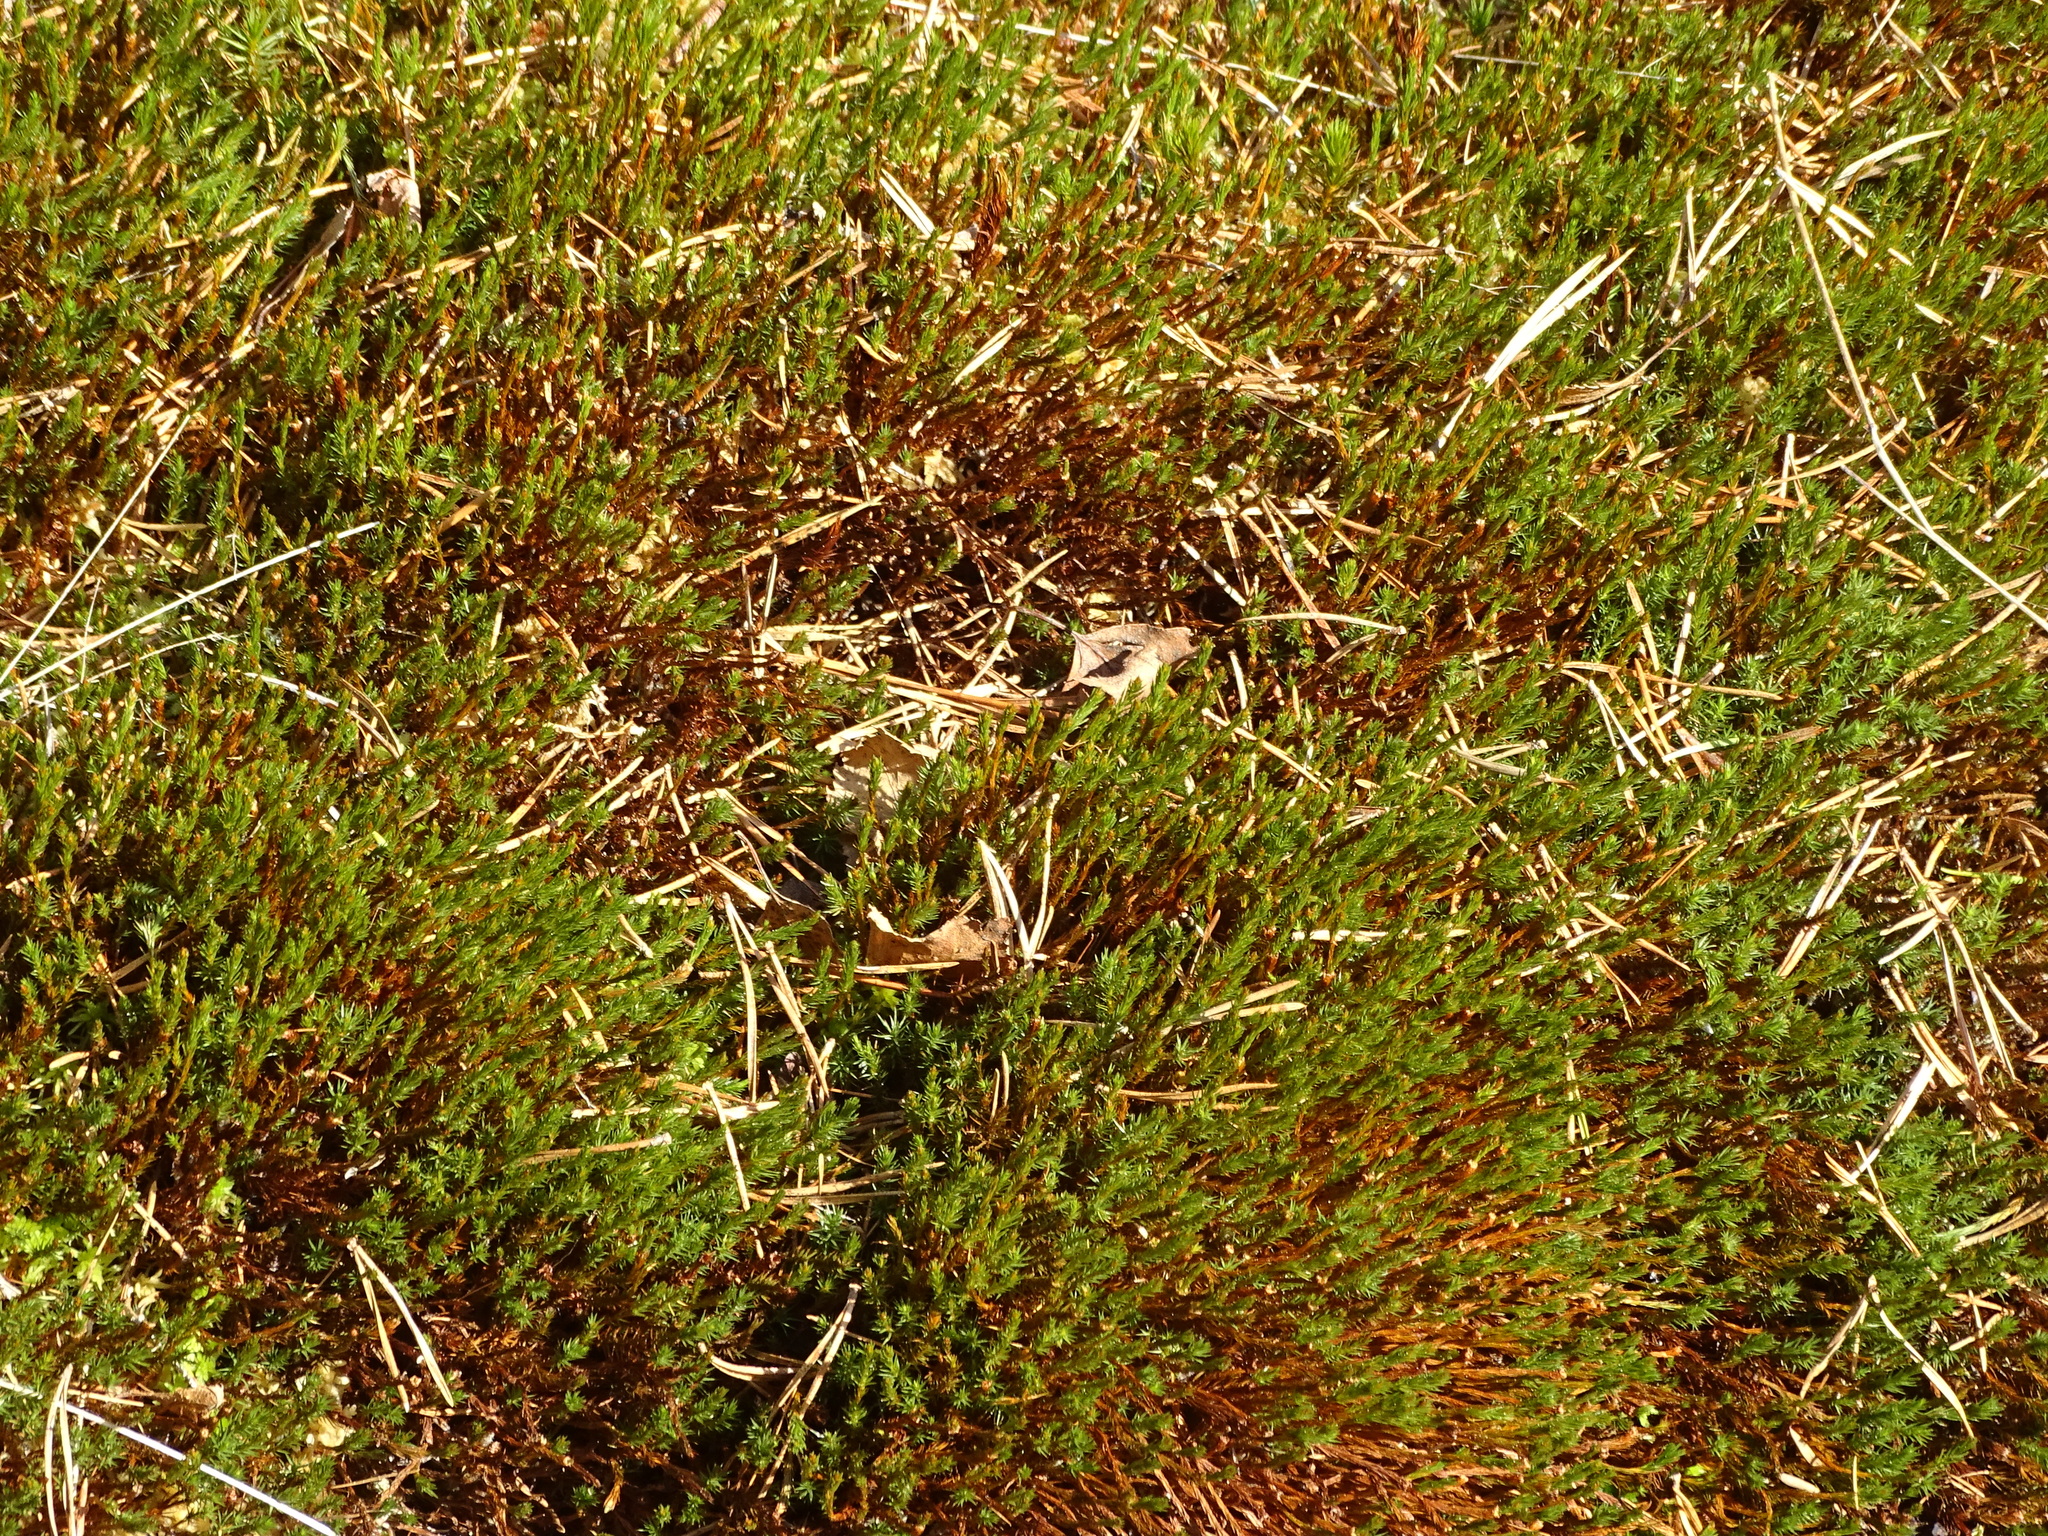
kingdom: Plantae
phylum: Bryophyta
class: Polytrichopsida
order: Polytrichales
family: Polytrichaceae
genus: Polytrichum
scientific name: Polytrichum strictum
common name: Bog haircap moss
